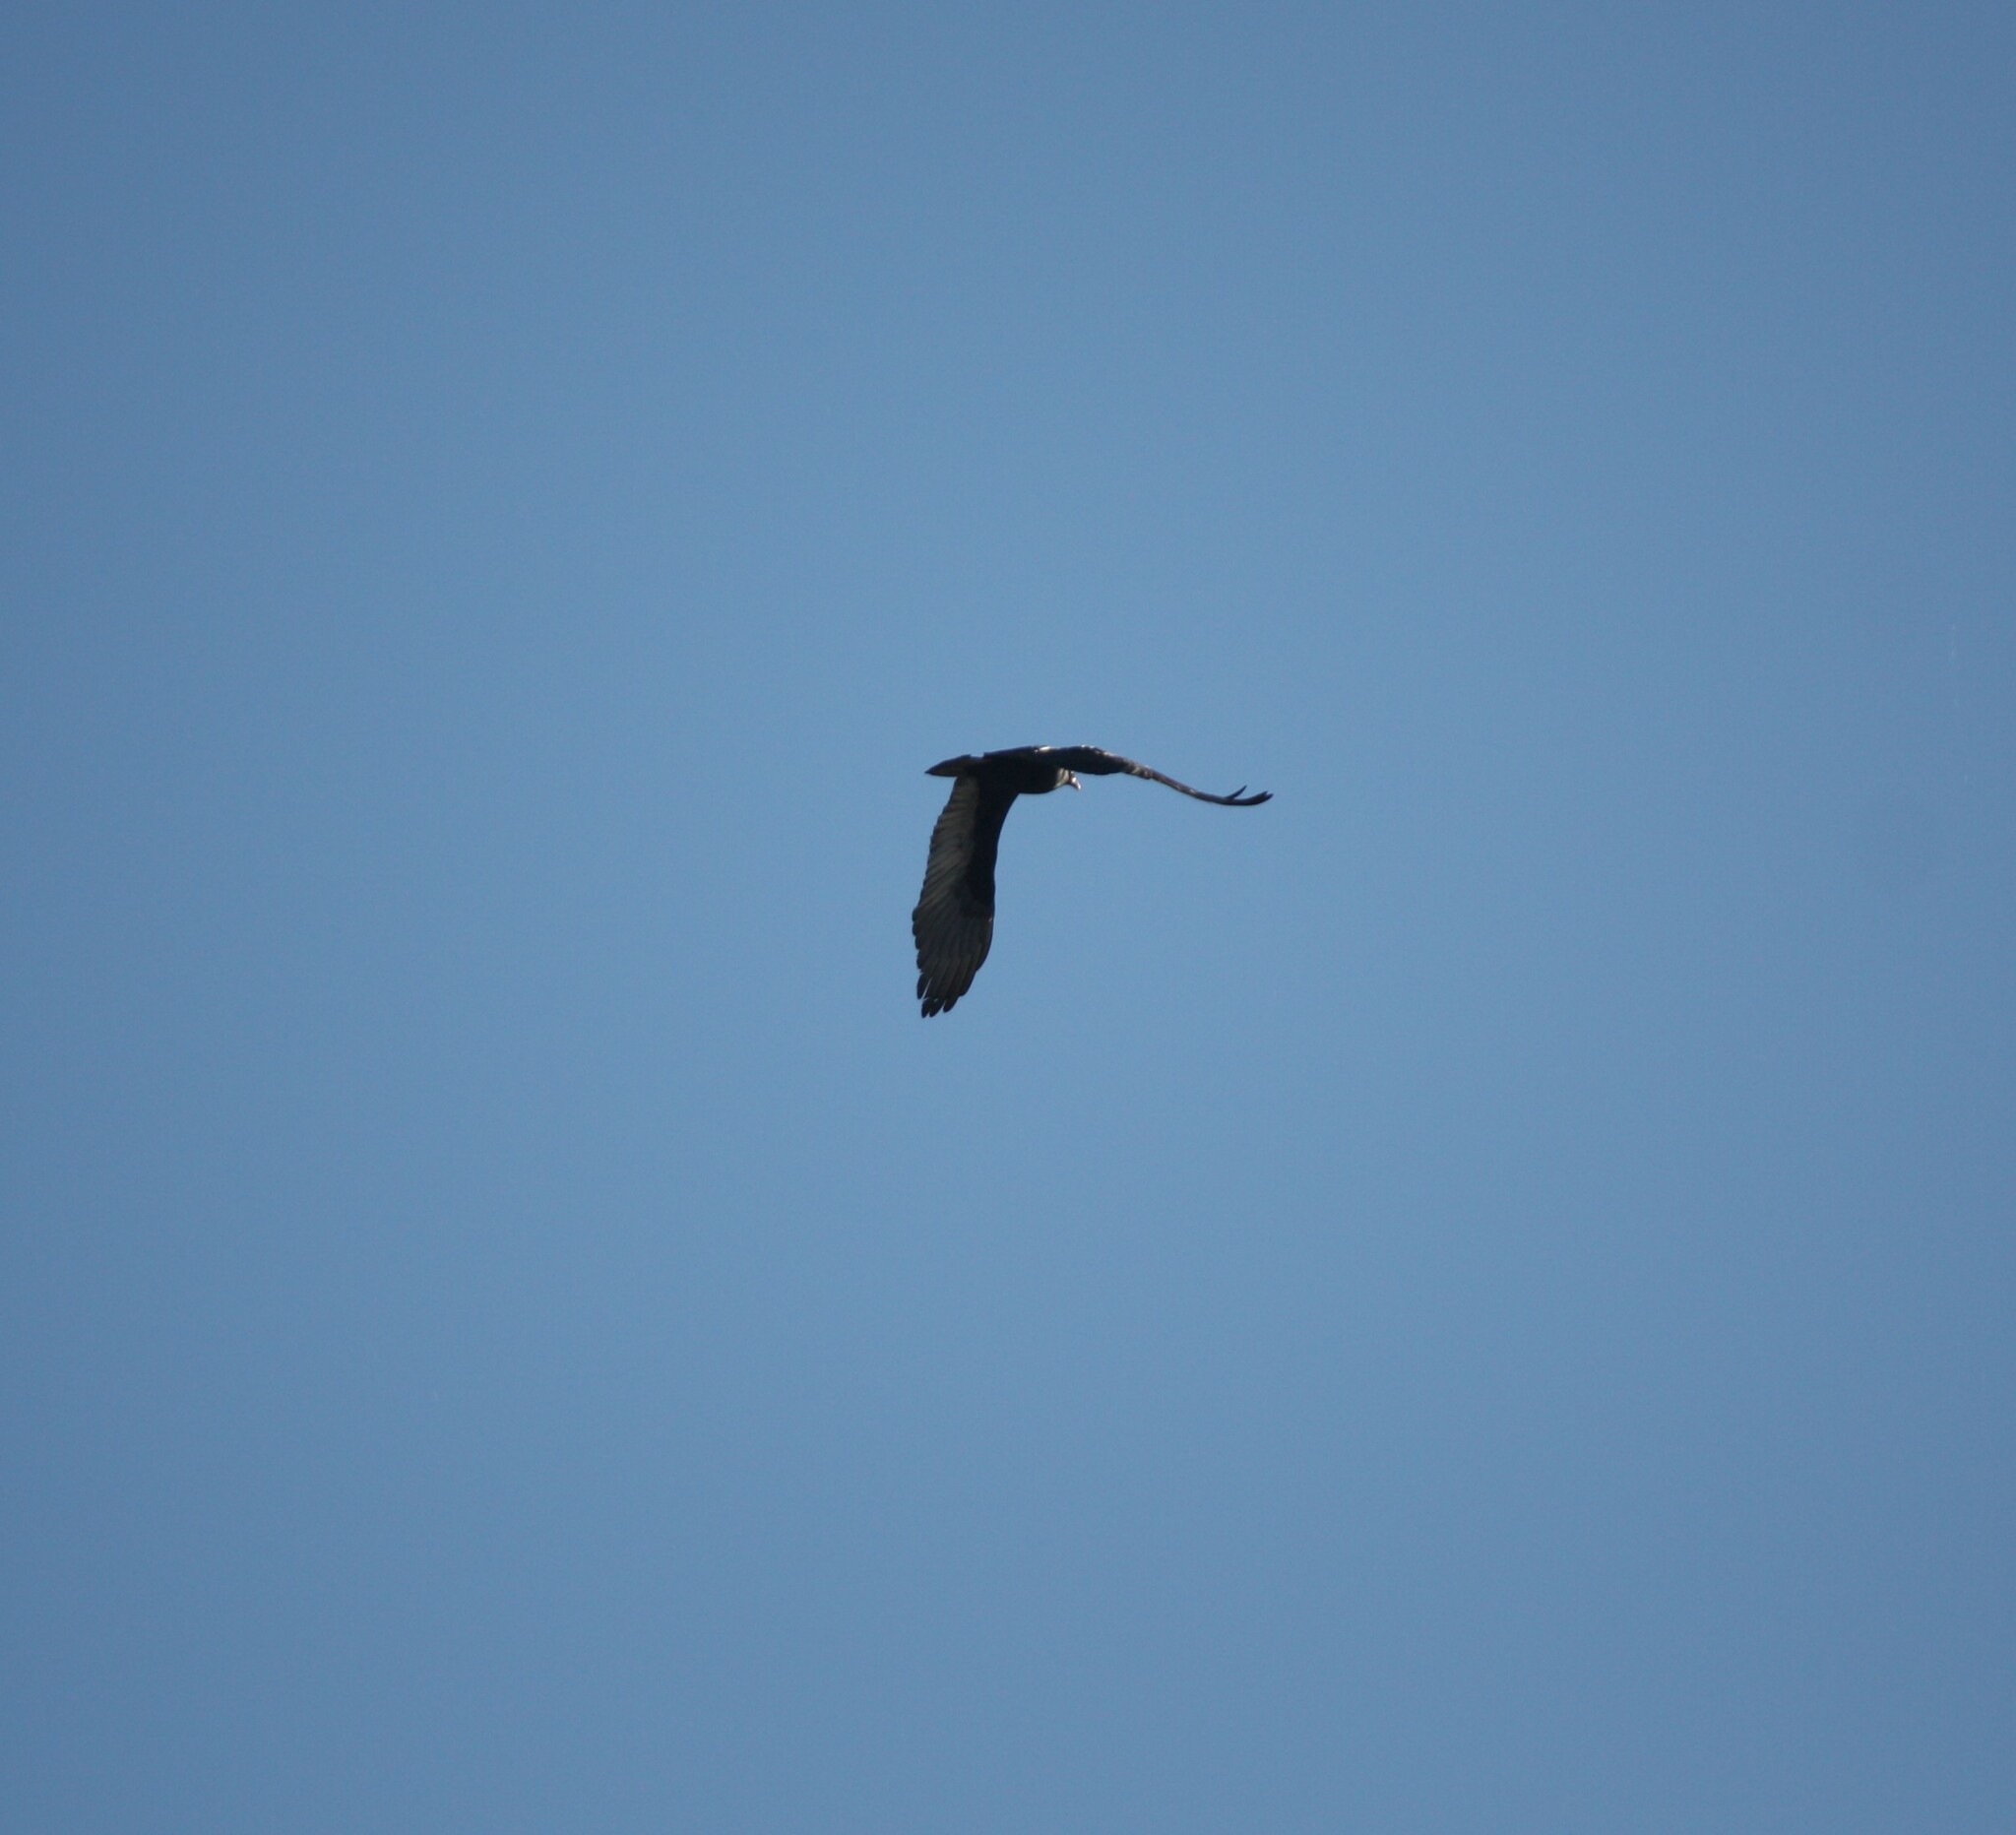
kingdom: Animalia
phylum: Chordata
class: Aves
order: Accipitriformes
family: Cathartidae
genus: Cathartes
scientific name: Cathartes aura
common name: Turkey vulture
